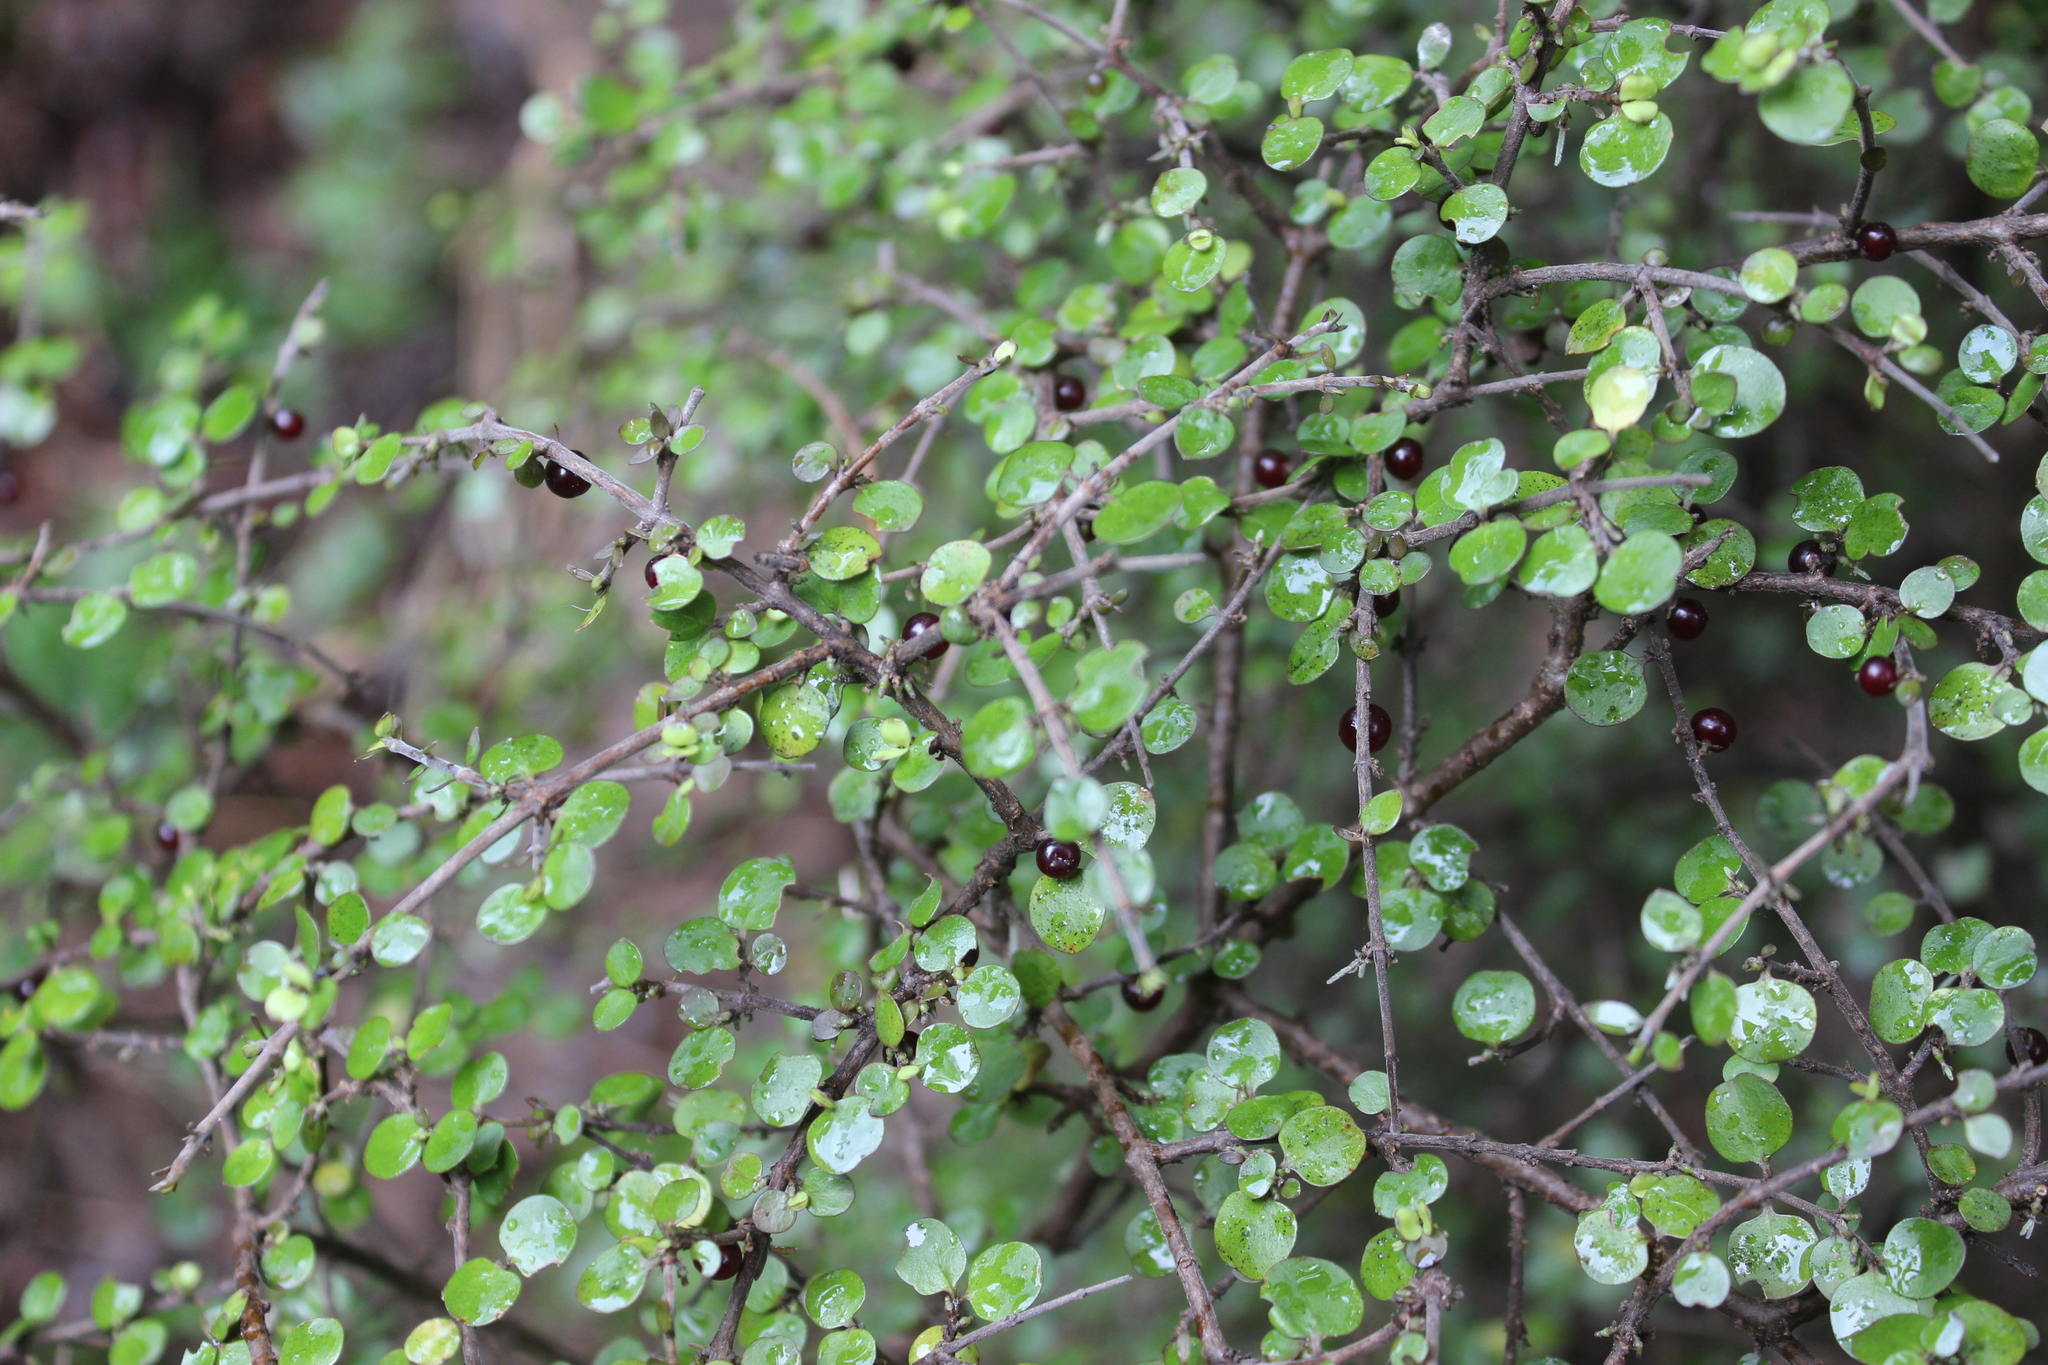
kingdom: Plantae
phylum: Tracheophyta
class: Magnoliopsida
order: Gentianales
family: Rubiaceae
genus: Coprosma
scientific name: Coprosma rhamnoides
